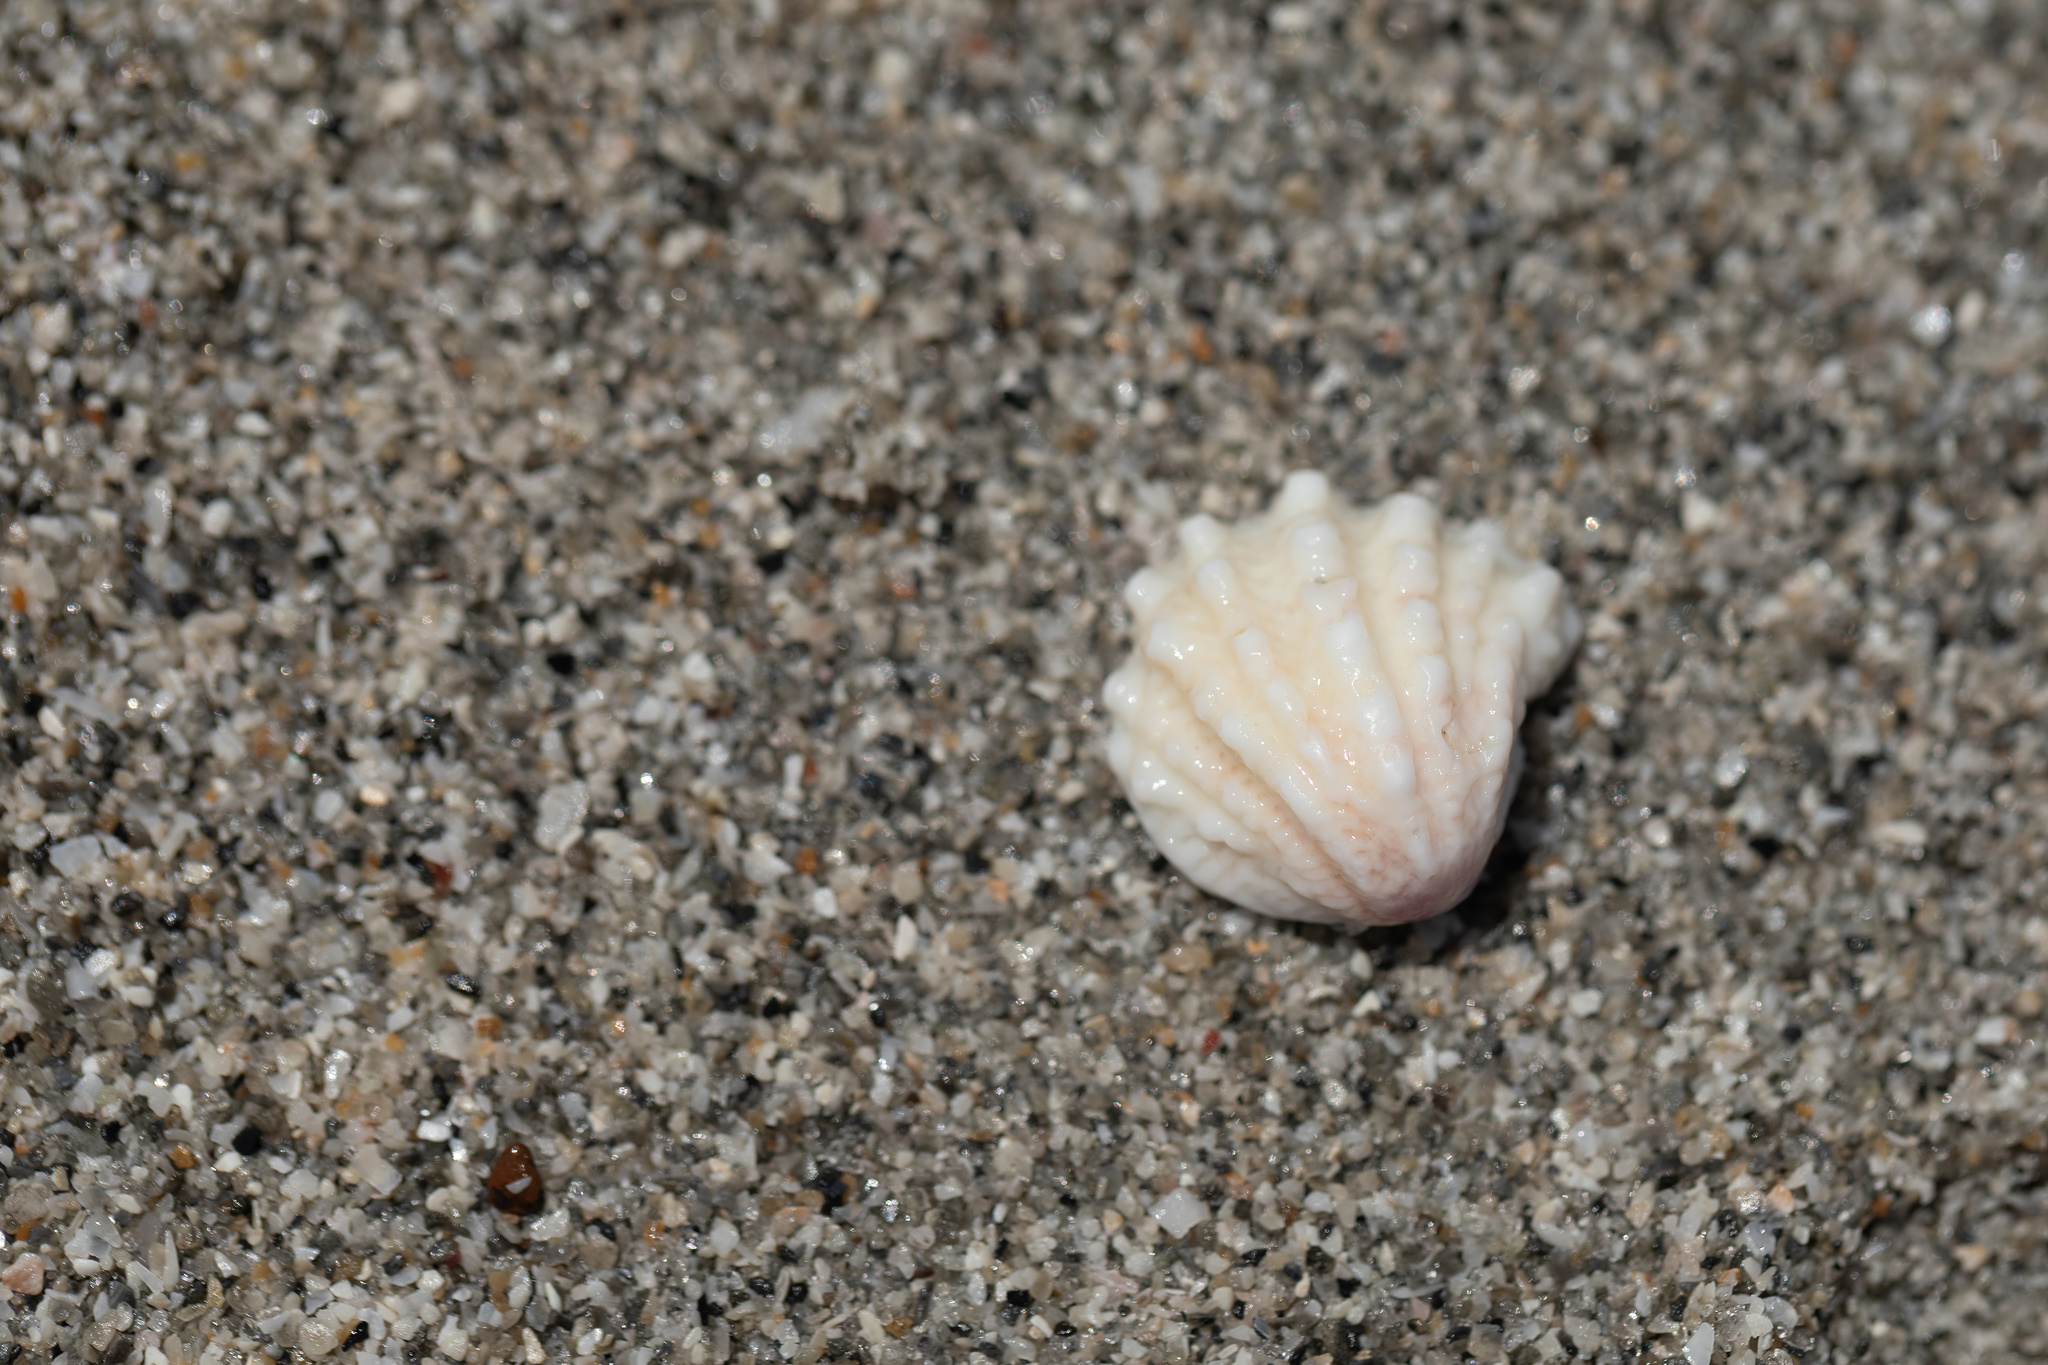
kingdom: Animalia
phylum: Mollusca
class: Bivalvia
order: Venerida
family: Chamidae
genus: Arcinella
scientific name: Arcinella cornuta
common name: Florida spiny jewel box
